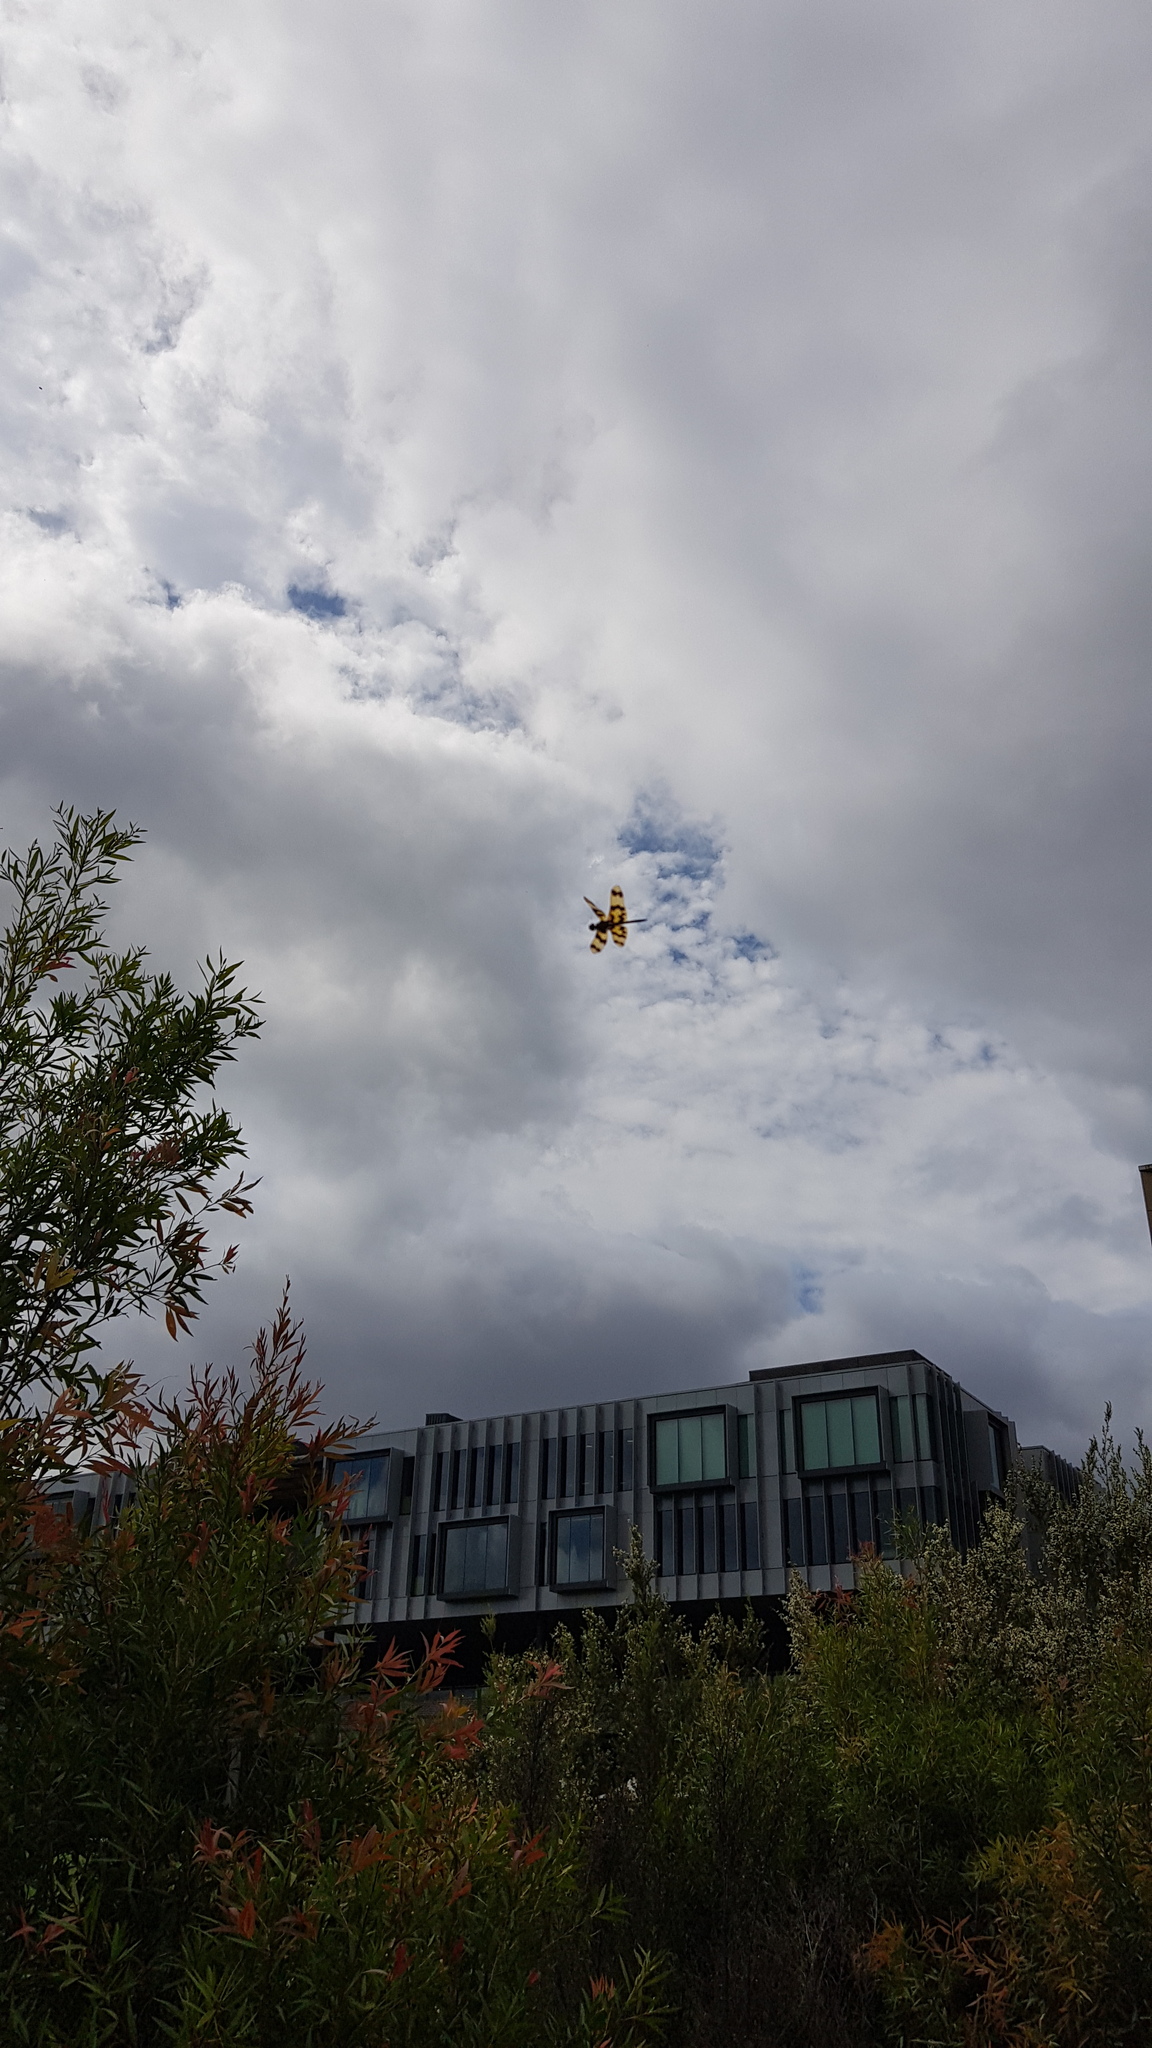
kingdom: Animalia
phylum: Arthropoda
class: Insecta
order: Odonata
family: Libellulidae
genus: Rhyothemis
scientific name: Rhyothemis graphiptera
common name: Graphic flutterer
